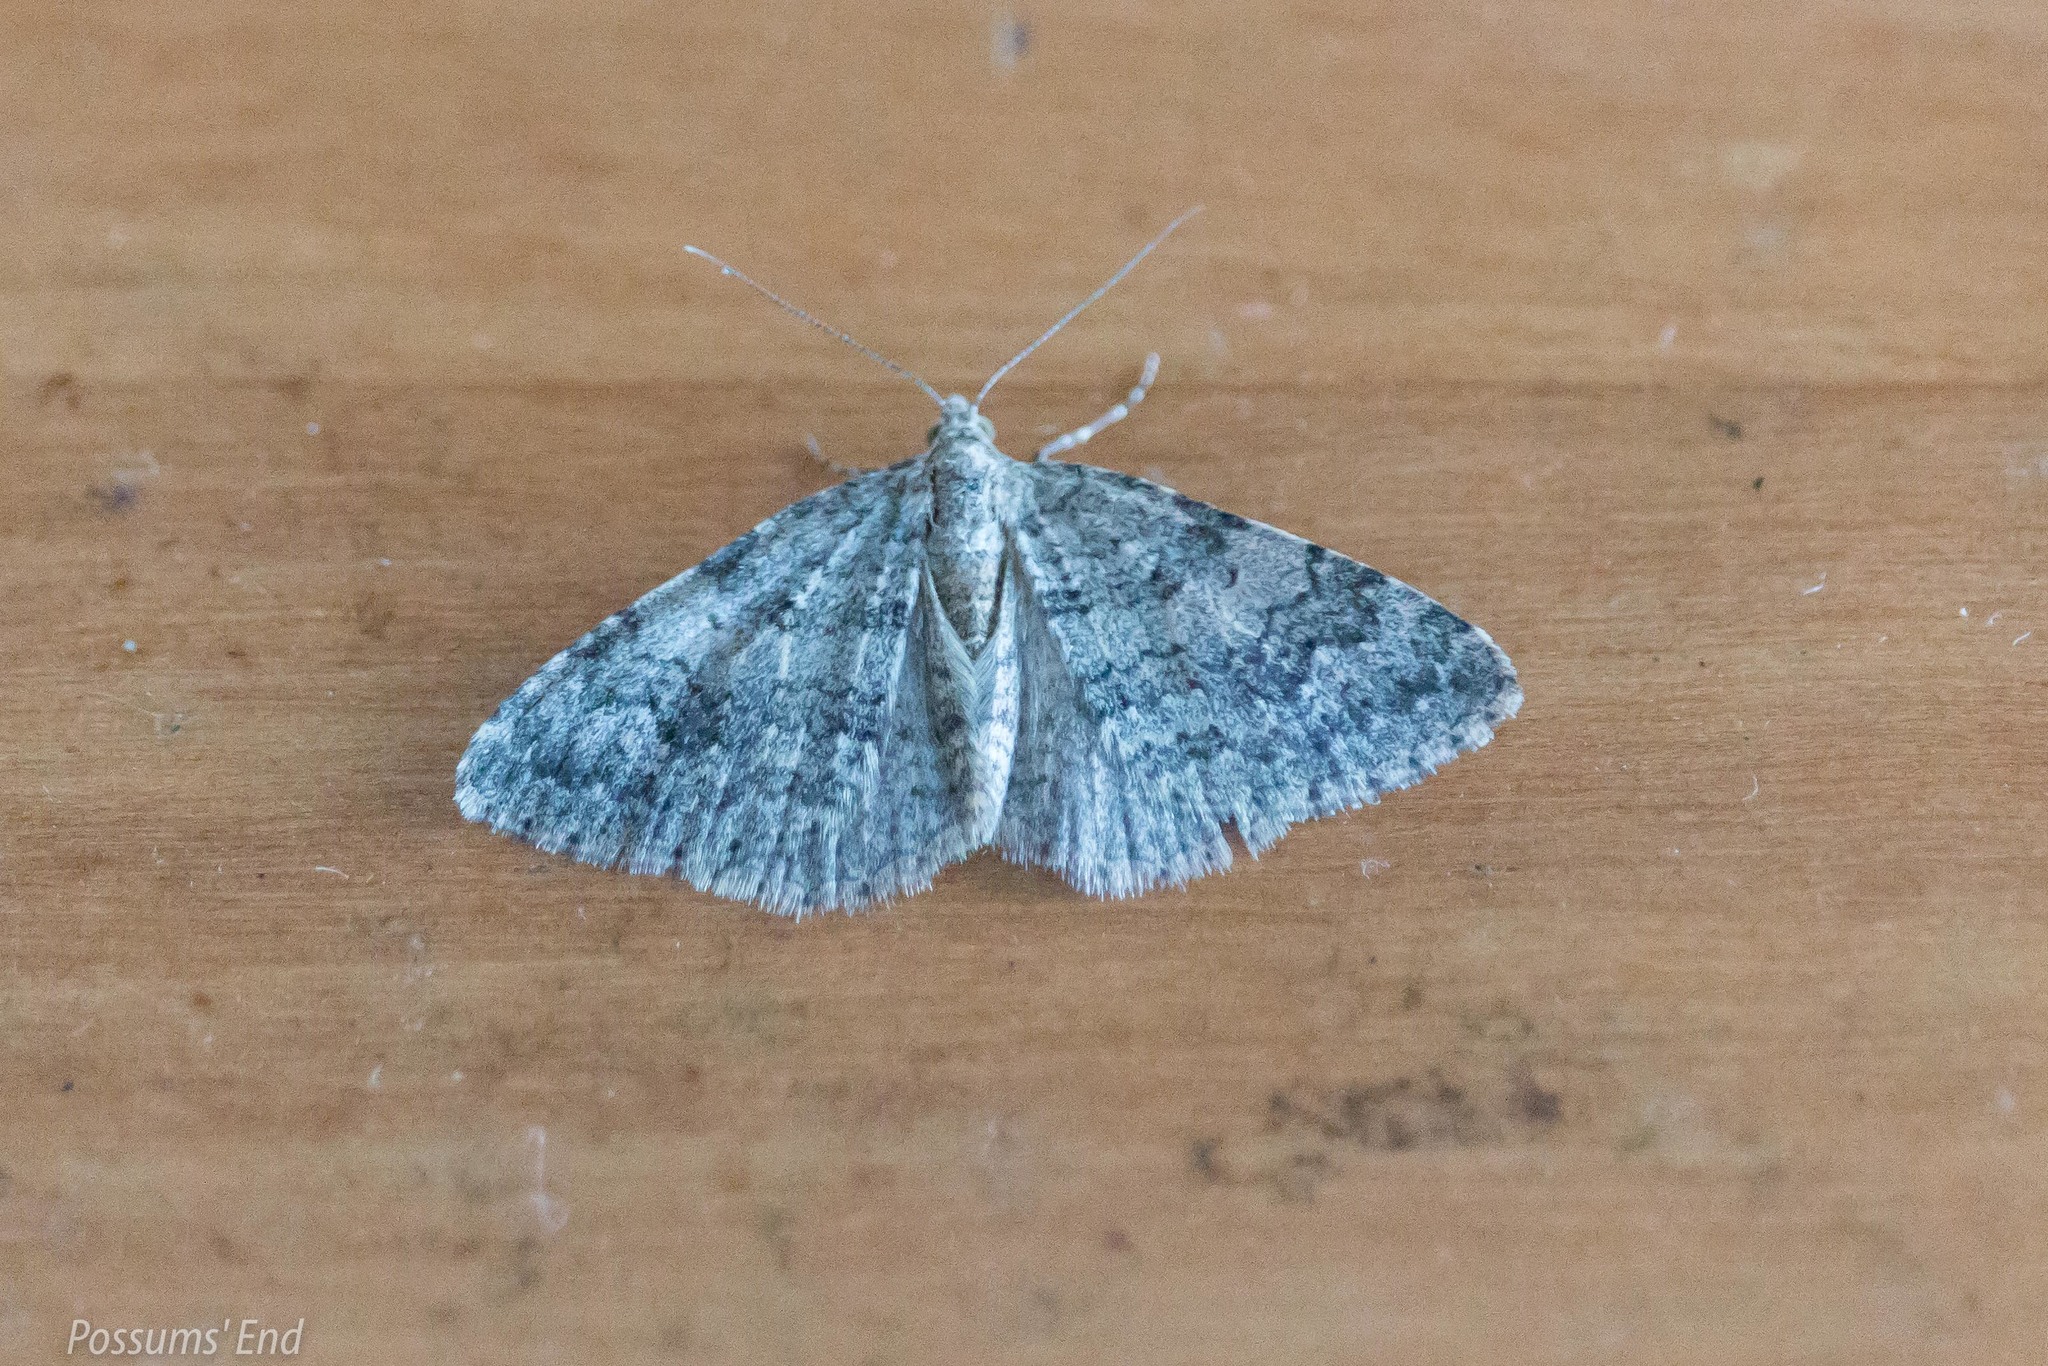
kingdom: Animalia
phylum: Arthropoda
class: Insecta
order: Lepidoptera
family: Geometridae
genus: Helastia
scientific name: Helastia corcularia
